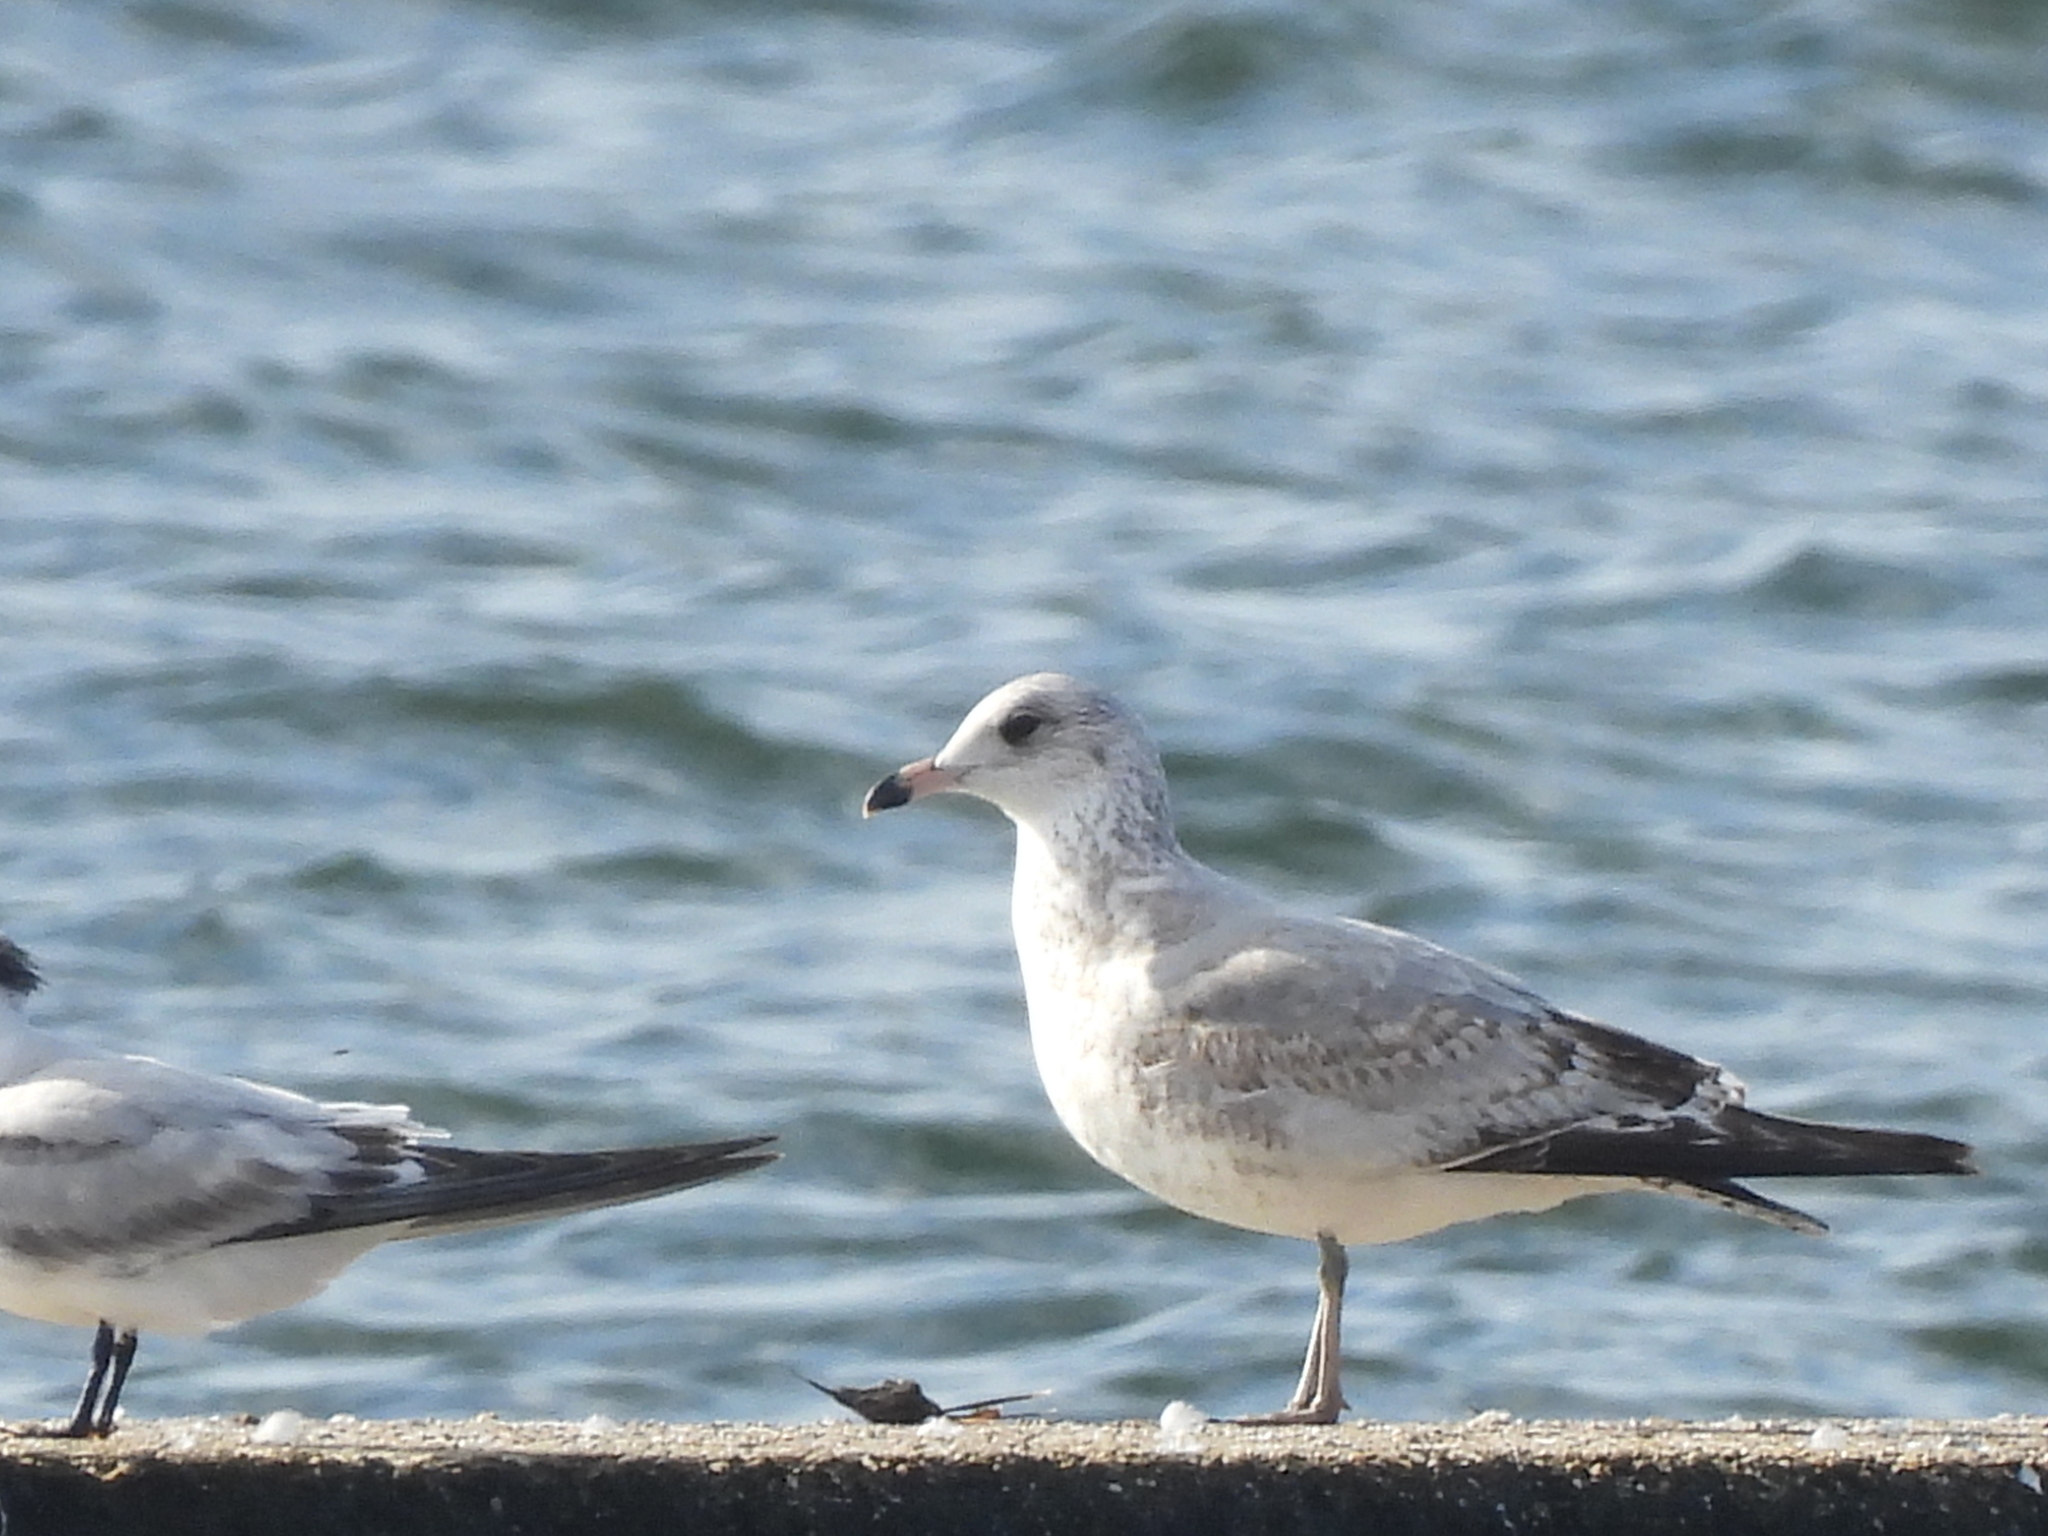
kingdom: Animalia
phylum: Chordata
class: Aves
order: Charadriiformes
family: Laridae
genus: Larus
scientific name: Larus delawarensis
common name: Ring-billed gull
